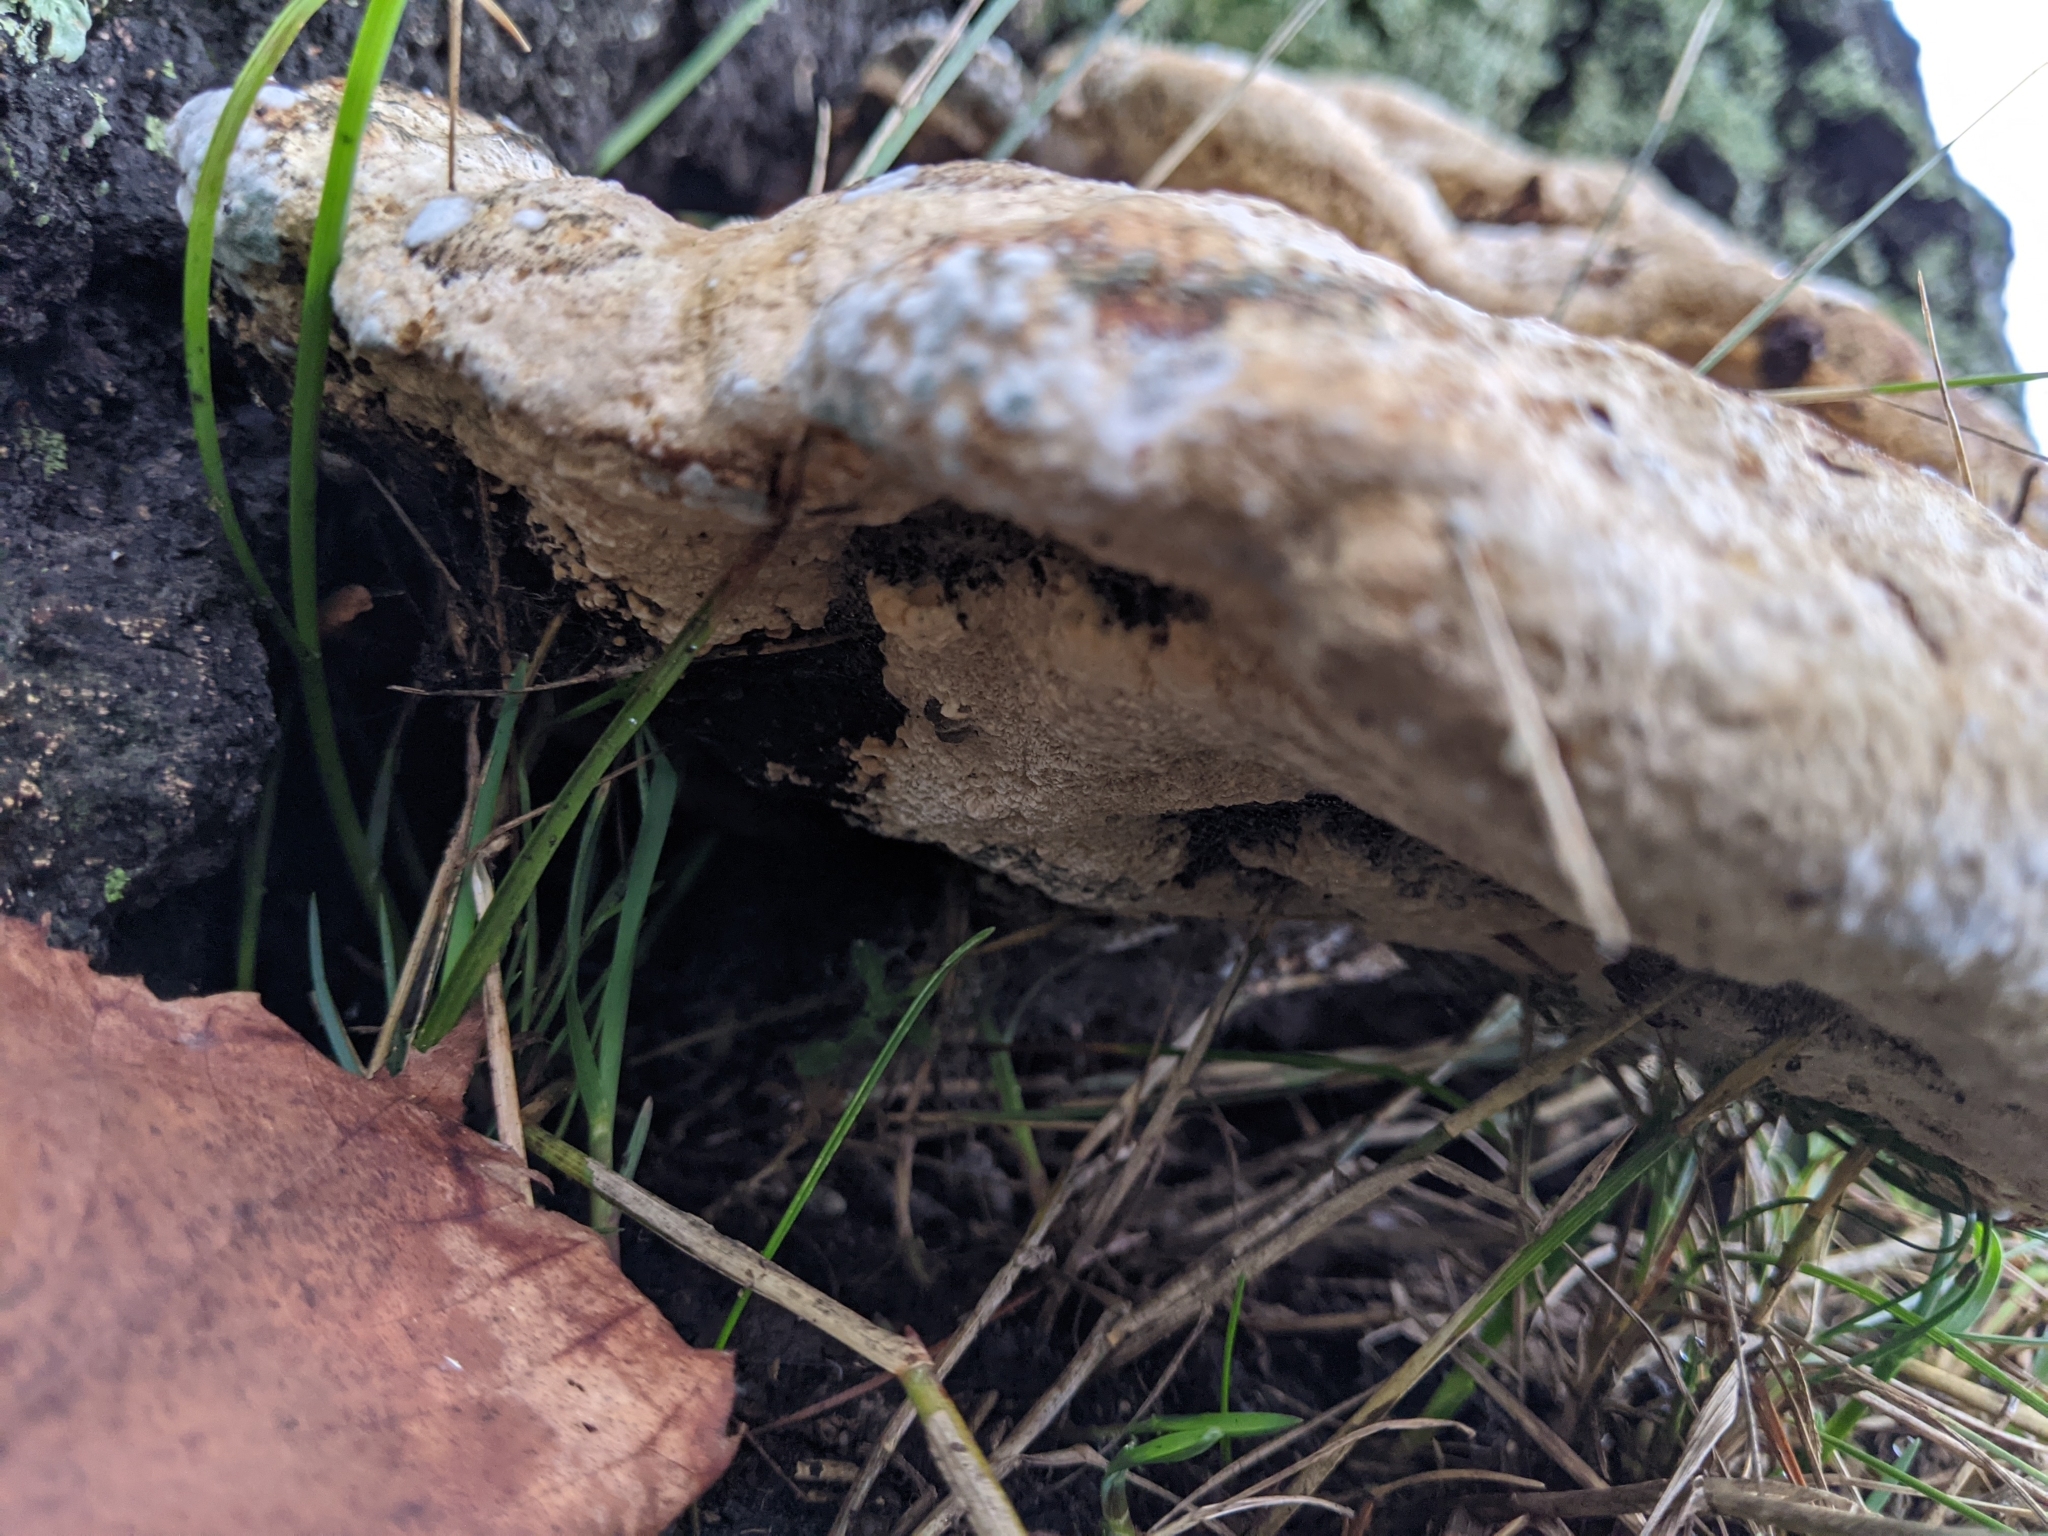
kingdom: Fungi
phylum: Basidiomycota
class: Agaricomycetes
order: Hymenochaetales
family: Hymenochaetaceae
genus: Pseudoinonotus
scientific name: Pseudoinonotus dryadeus
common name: Oak bracket
